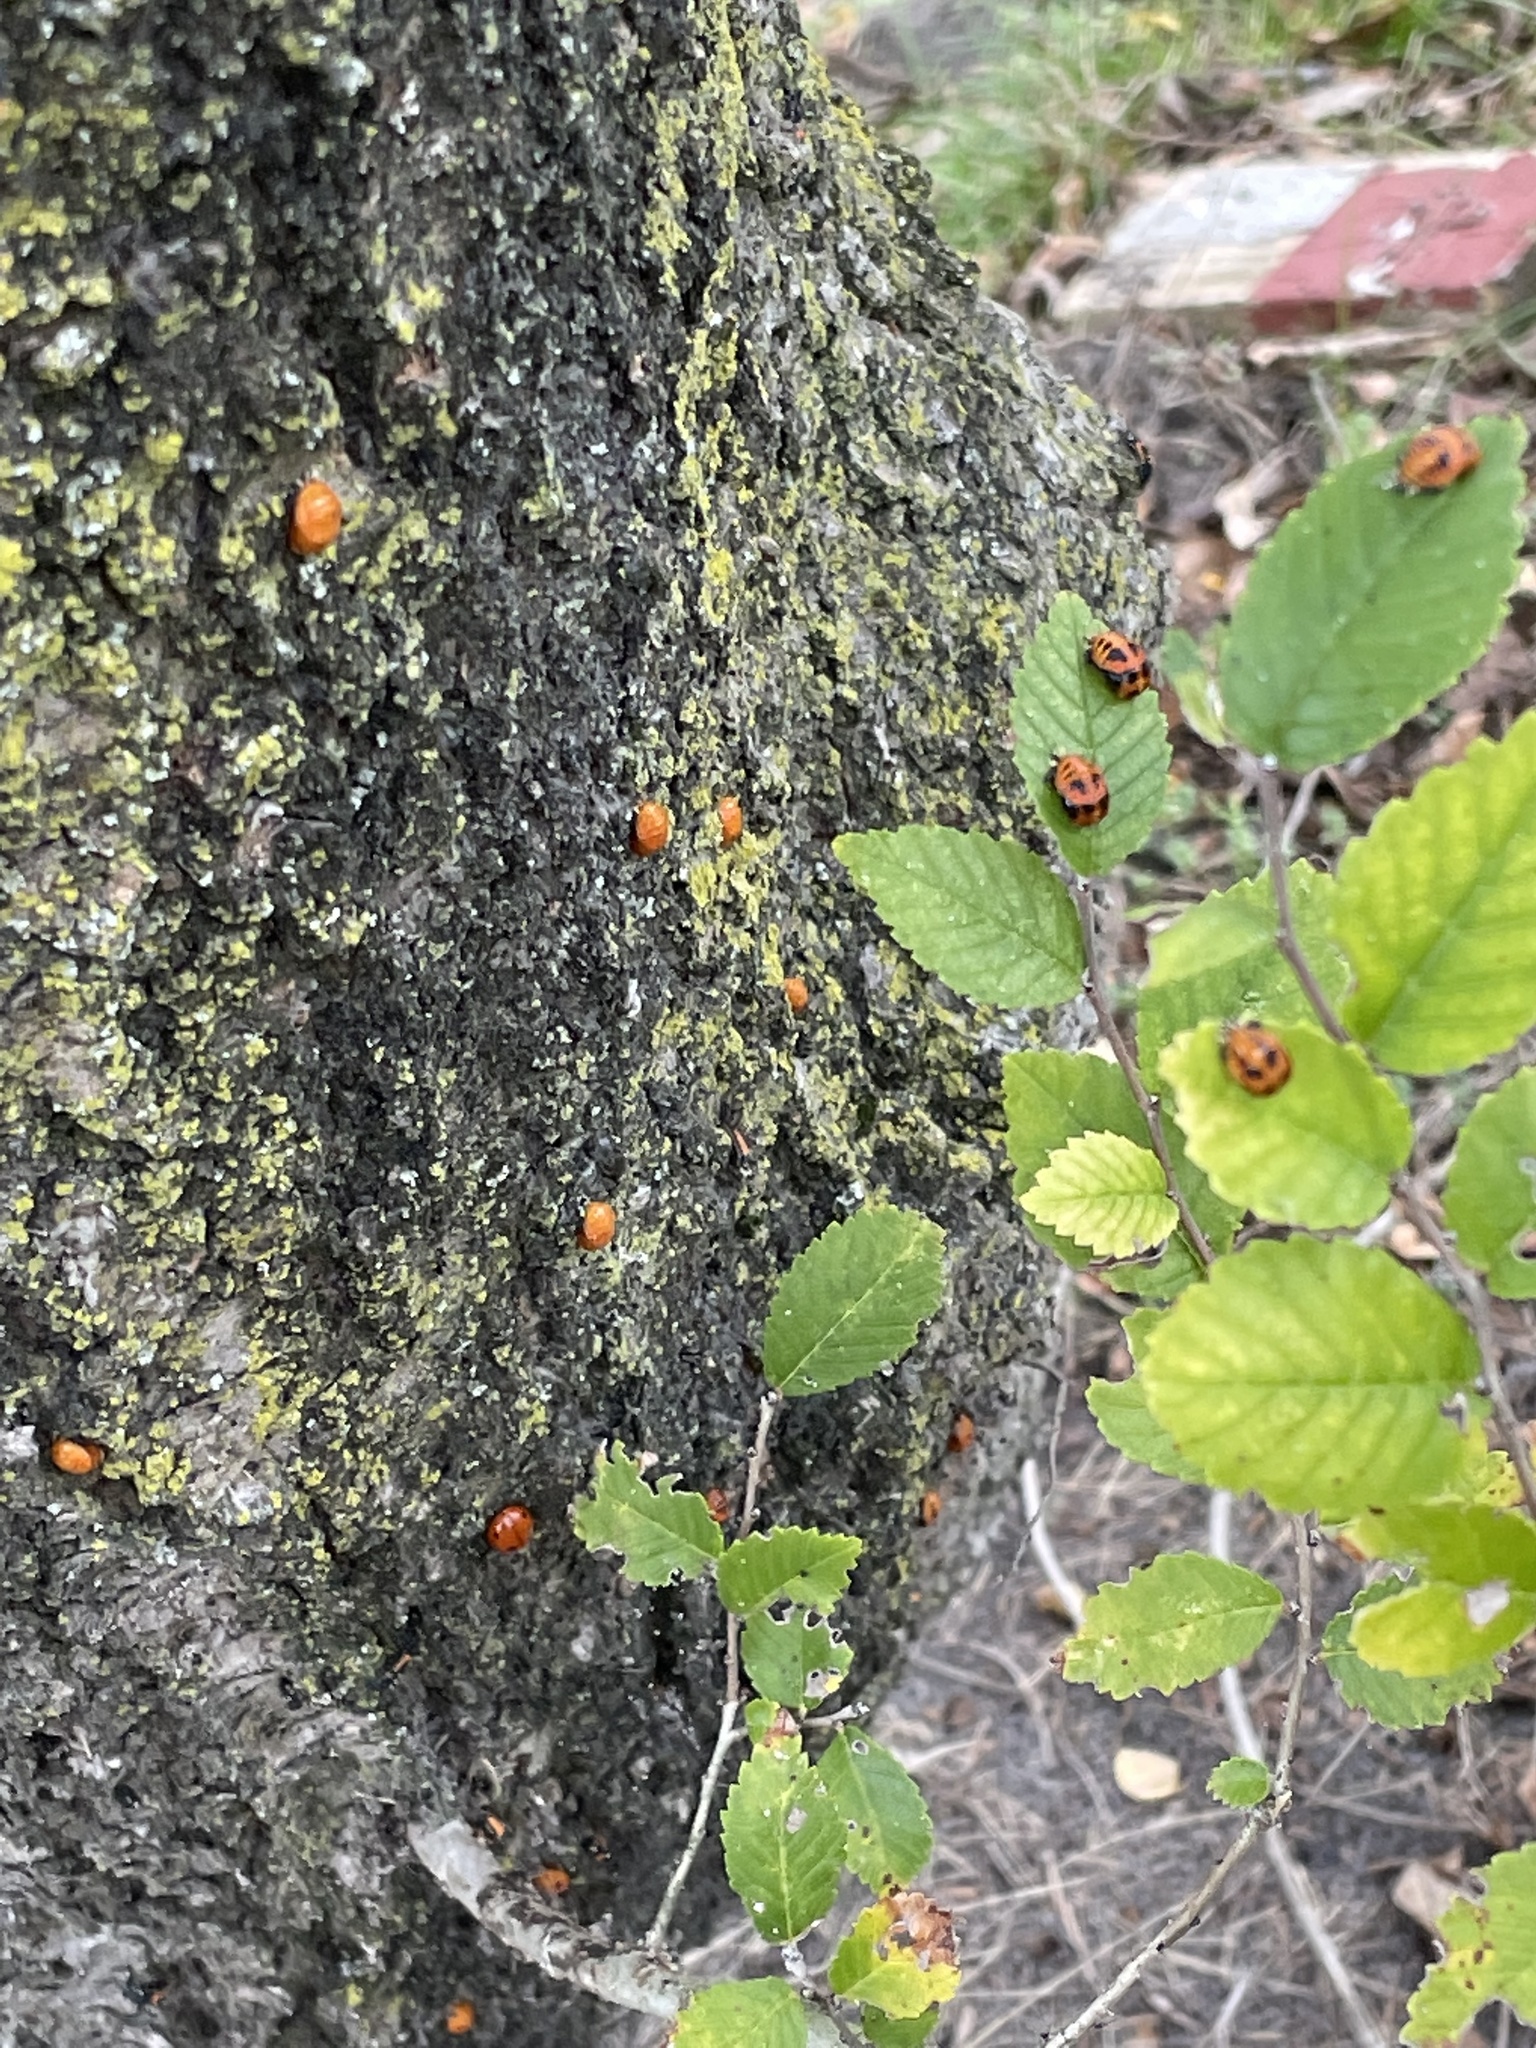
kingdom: Animalia
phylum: Arthropoda
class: Insecta
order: Coleoptera
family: Coccinellidae
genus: Harmonia
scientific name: Harmonia axyridis
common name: Harlequin ladybird
